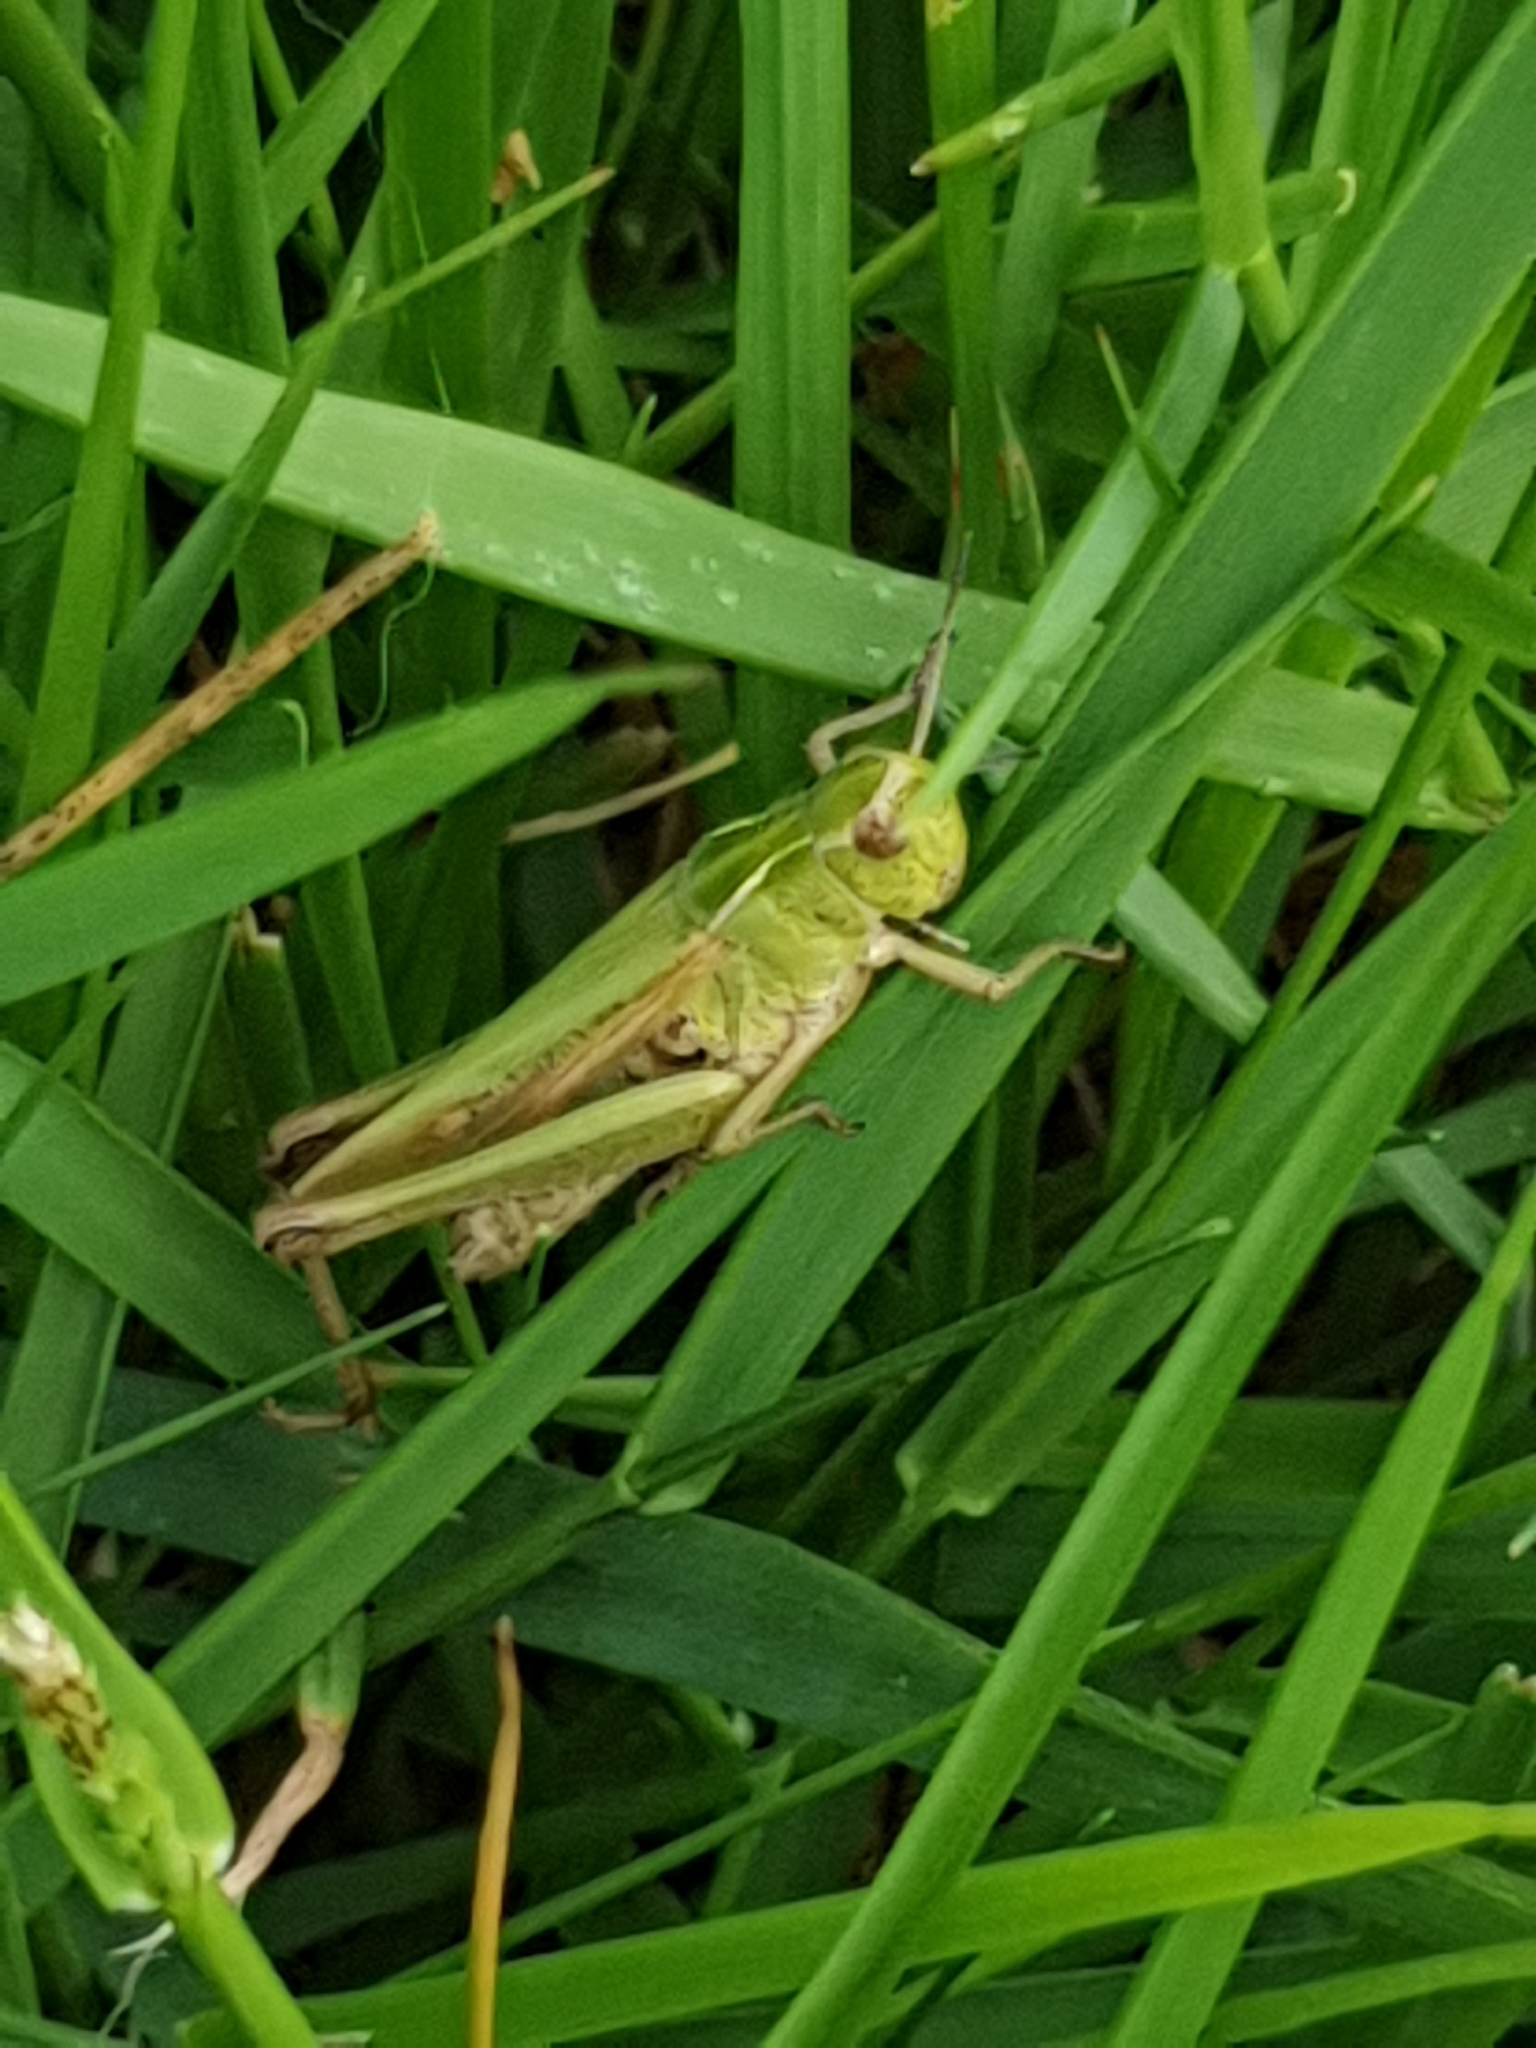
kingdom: Animalia
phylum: Arthropoda
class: Insecta
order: Orthoptera
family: Acrididae
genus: Omocestus
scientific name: Omocestus viridulus
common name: Common green grasshopper
